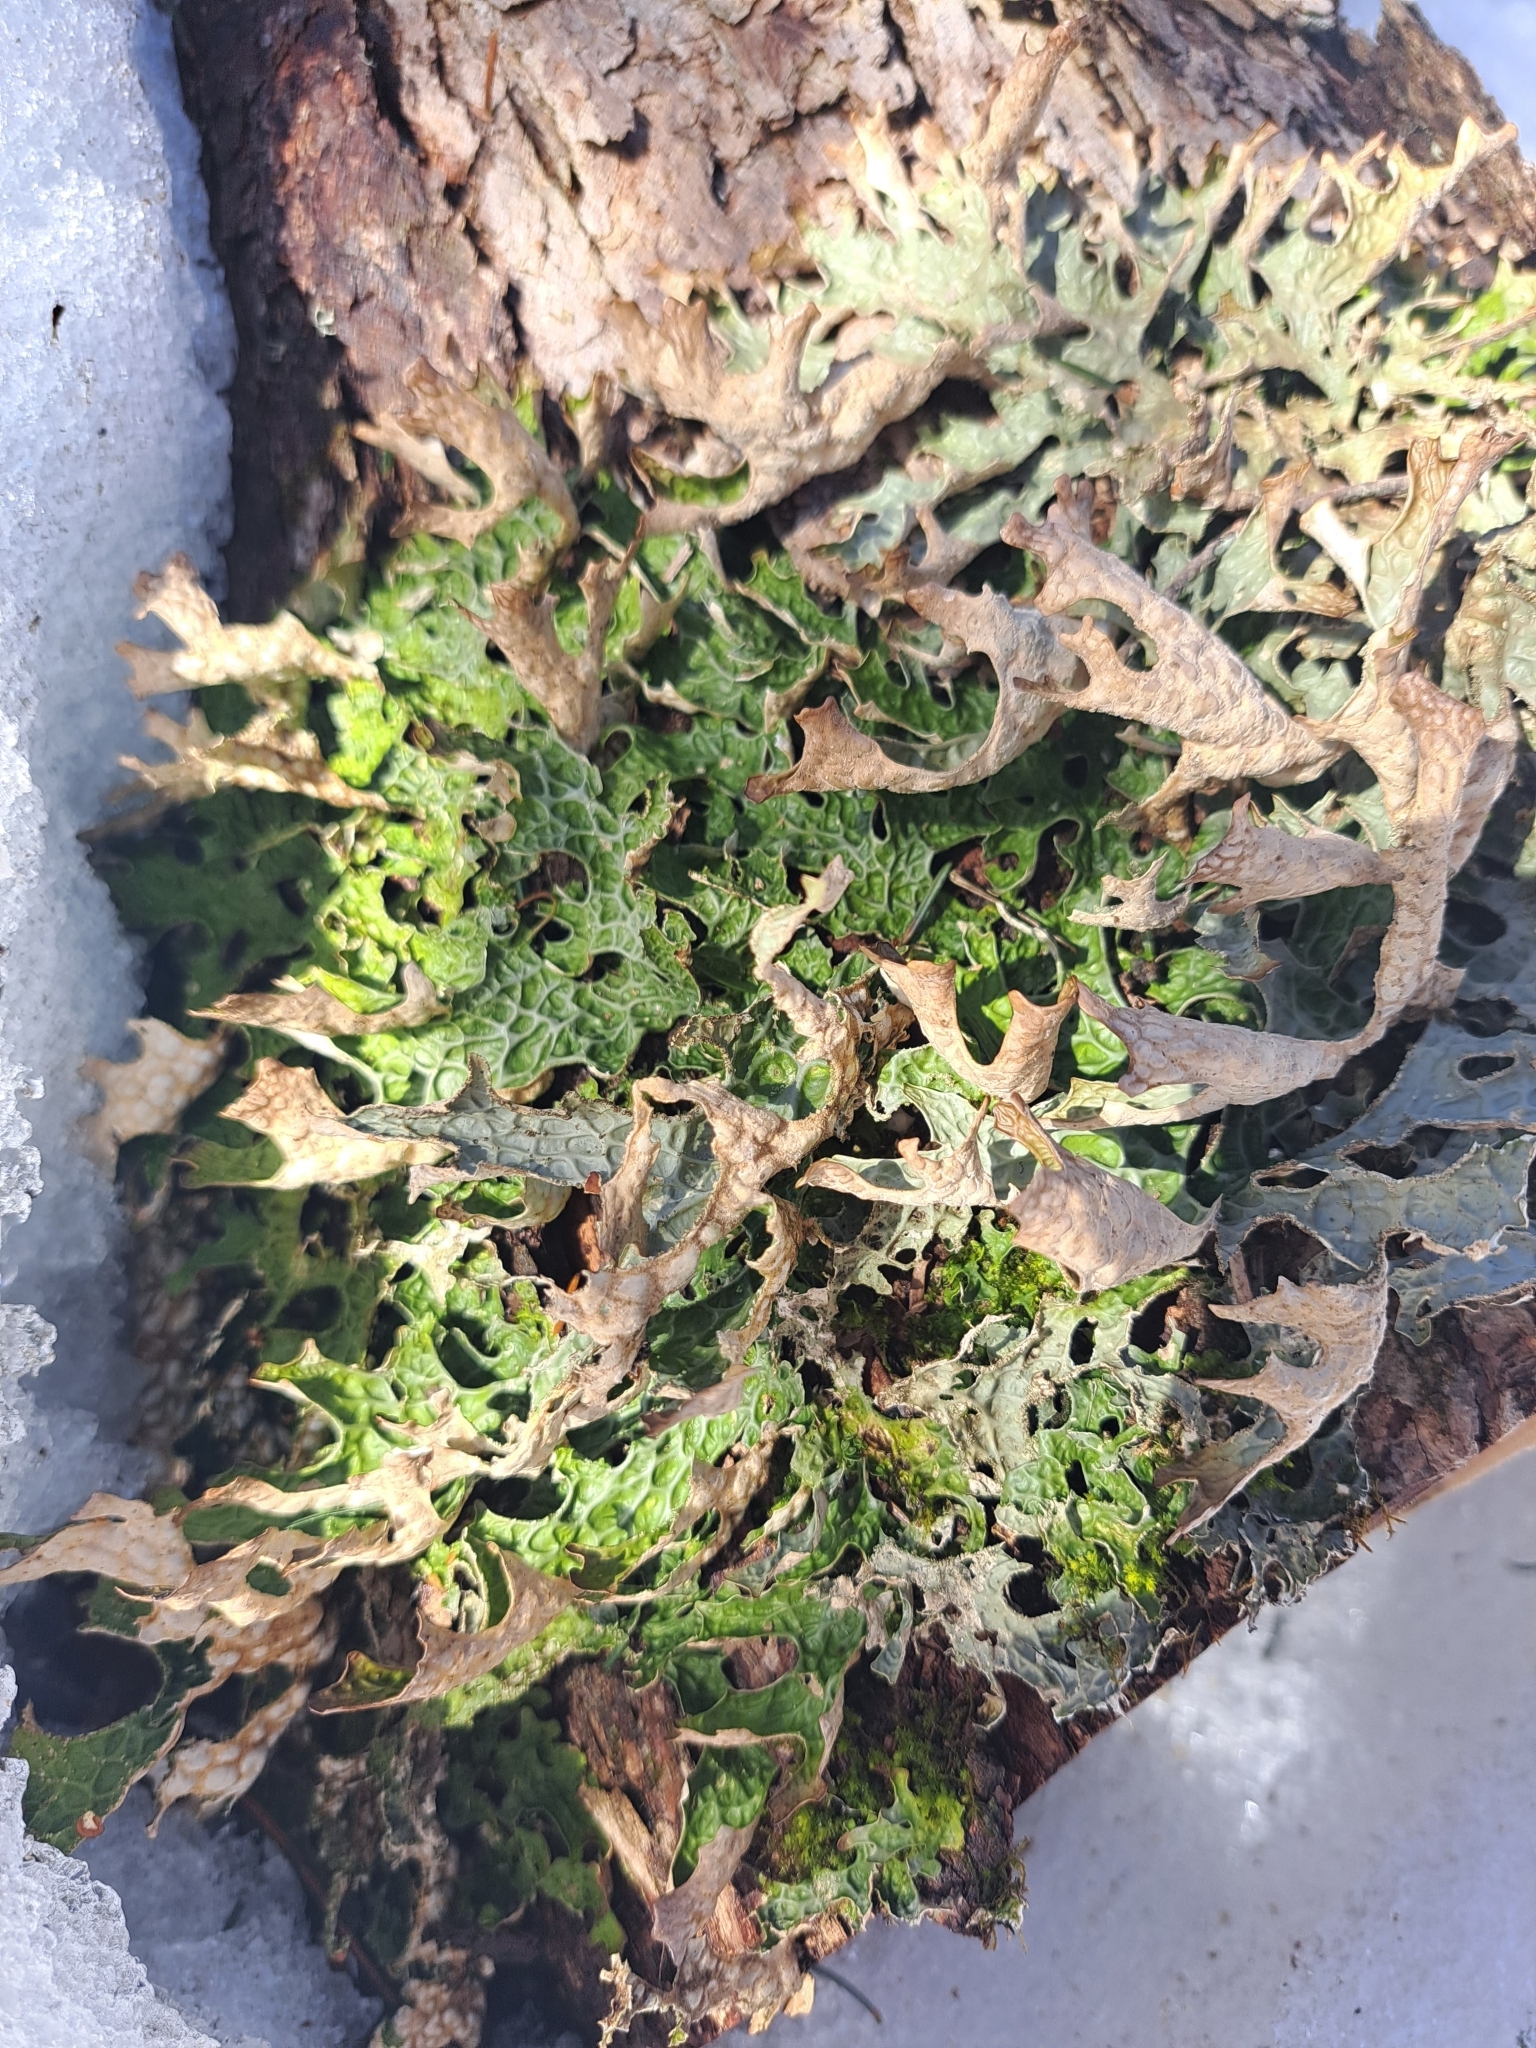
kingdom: Fungi
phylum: Ascomycota
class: Lecanoromycetes
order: Peltigerales
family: Lobariaceae
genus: Lobaria
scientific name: Lobaria pulmonaria
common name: Lungwort
